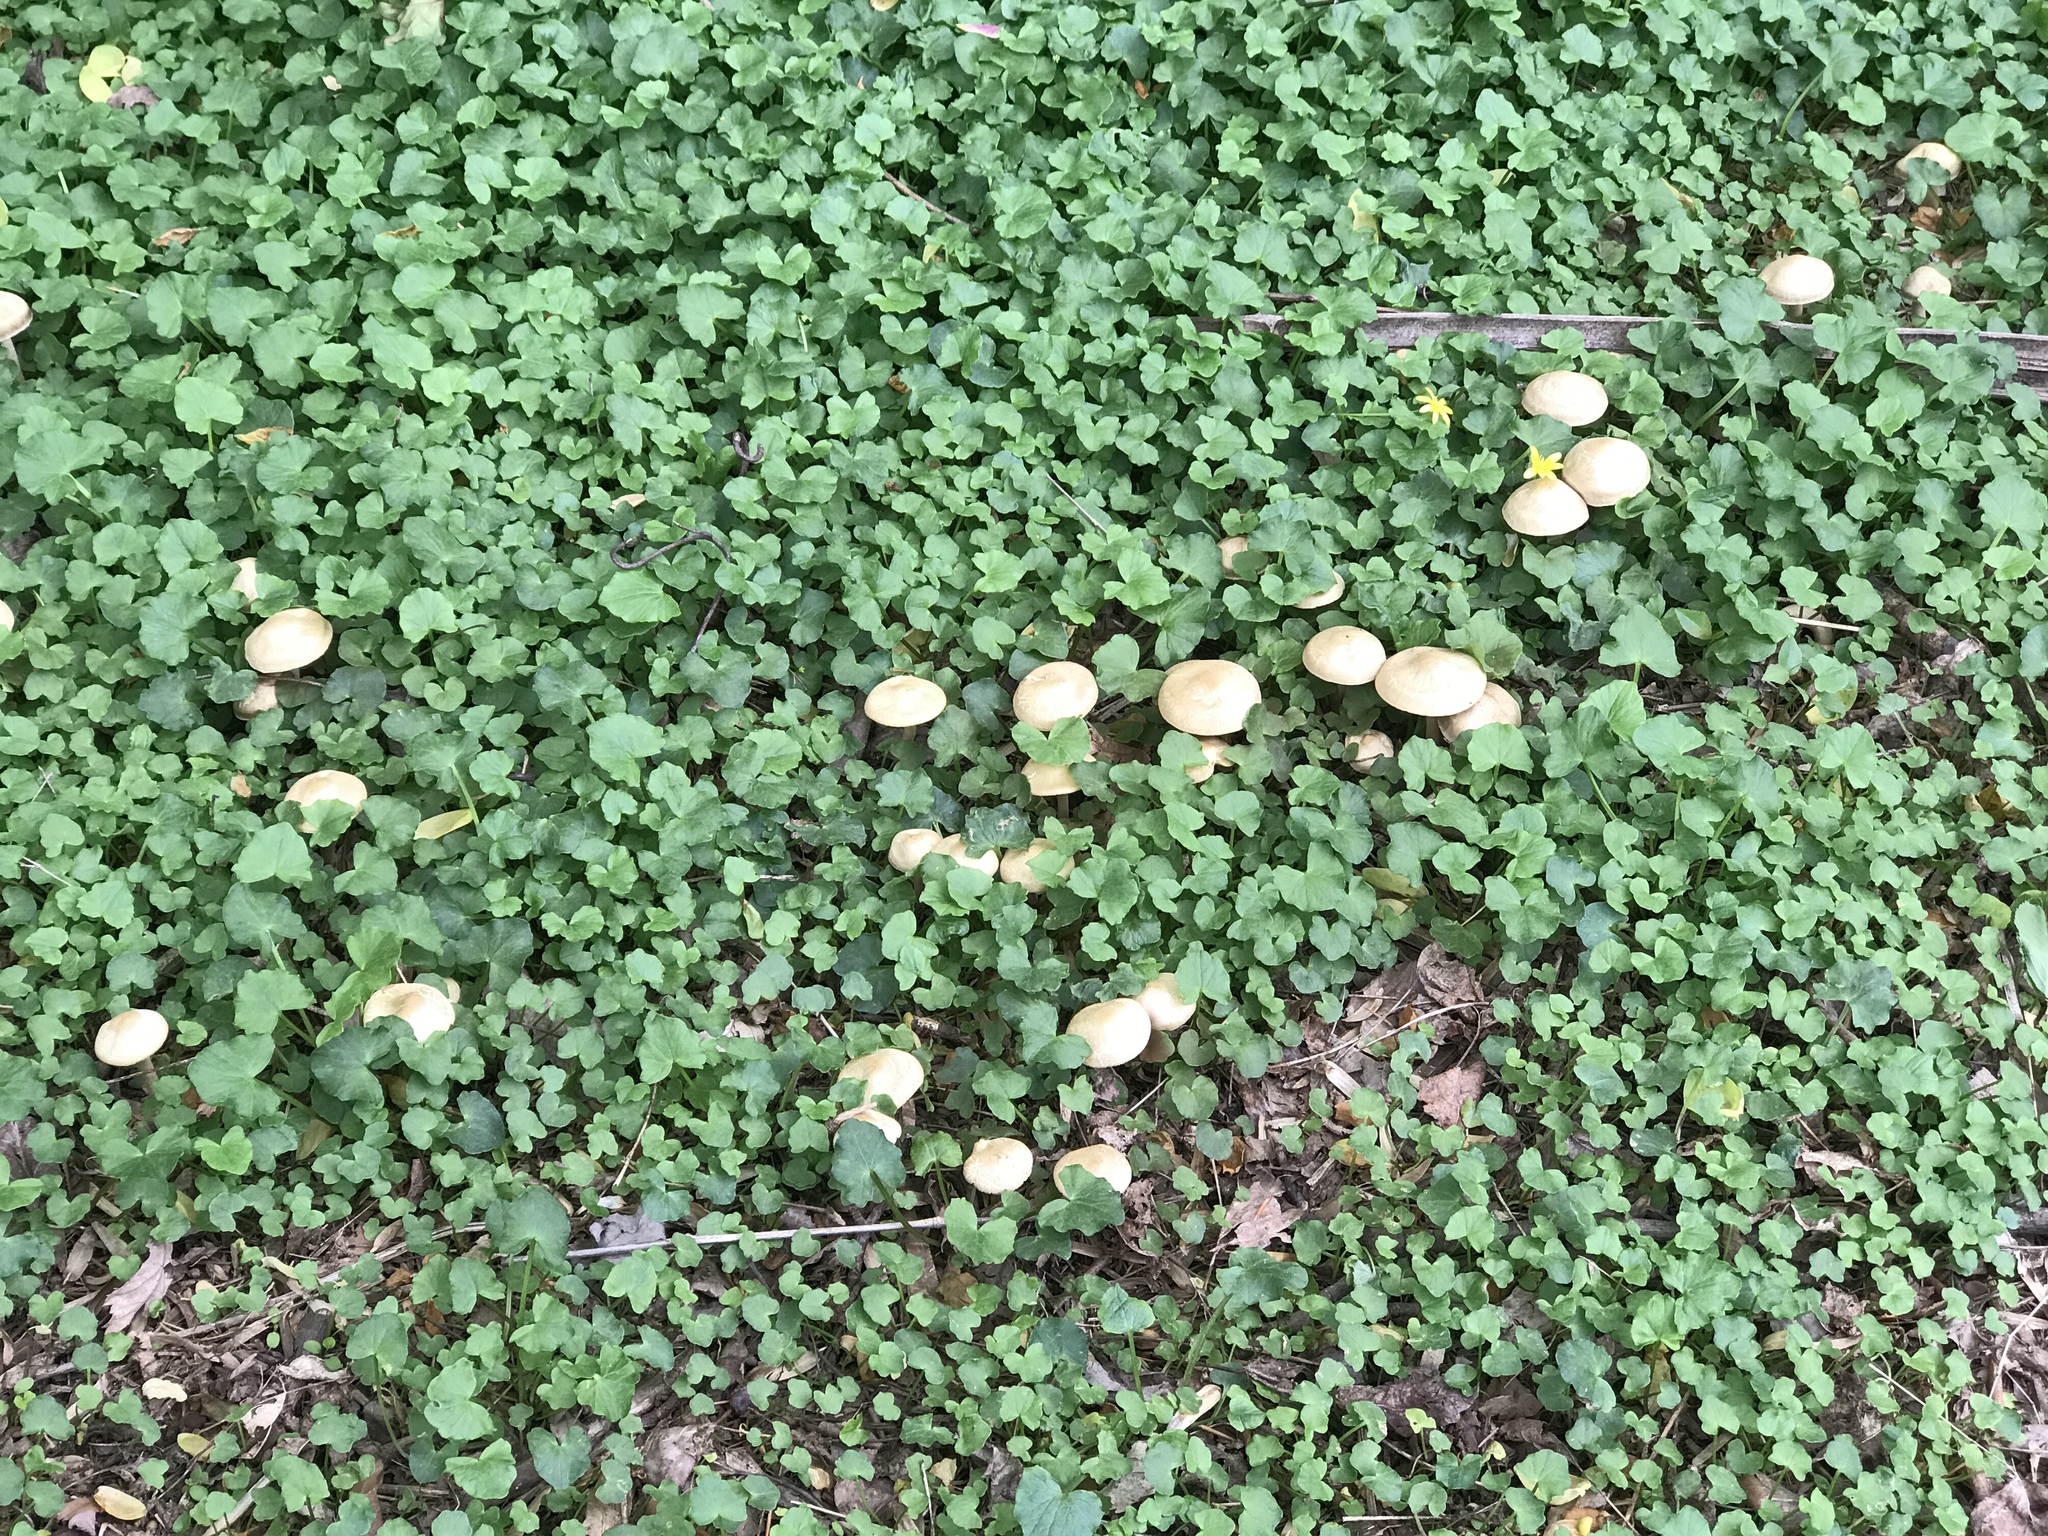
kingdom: Fungi
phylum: Basidiomycota
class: Agaricomycetes
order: Agaricales
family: Strophariaceae
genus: Agrocybe
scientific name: Agrocybe praecox
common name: Spring fieldcap
